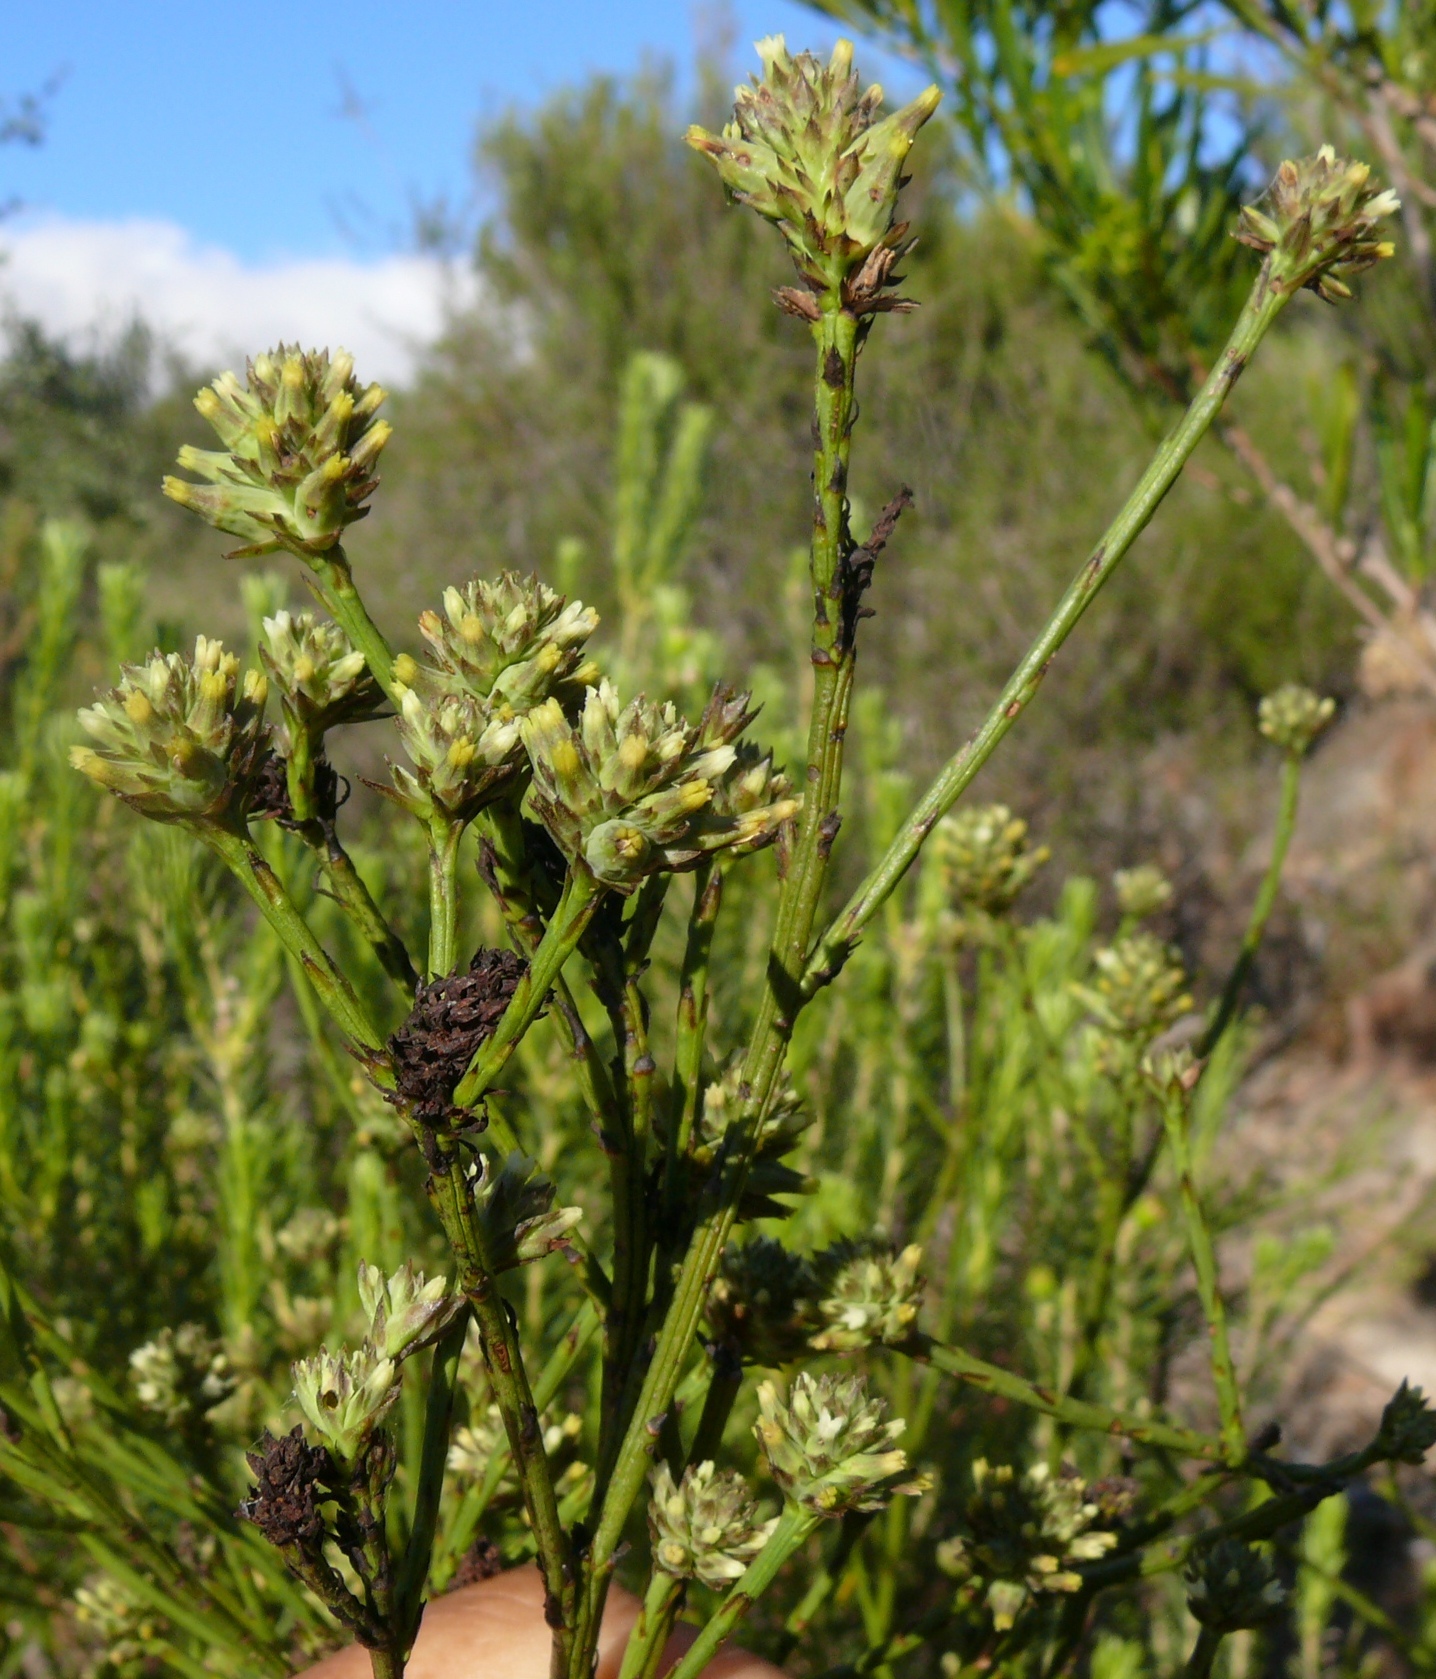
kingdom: Plantae
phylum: Tracheophyta
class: Magnoliopsida
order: Santalales
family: Thesiaceae
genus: Thesium
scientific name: Thesium strictum
